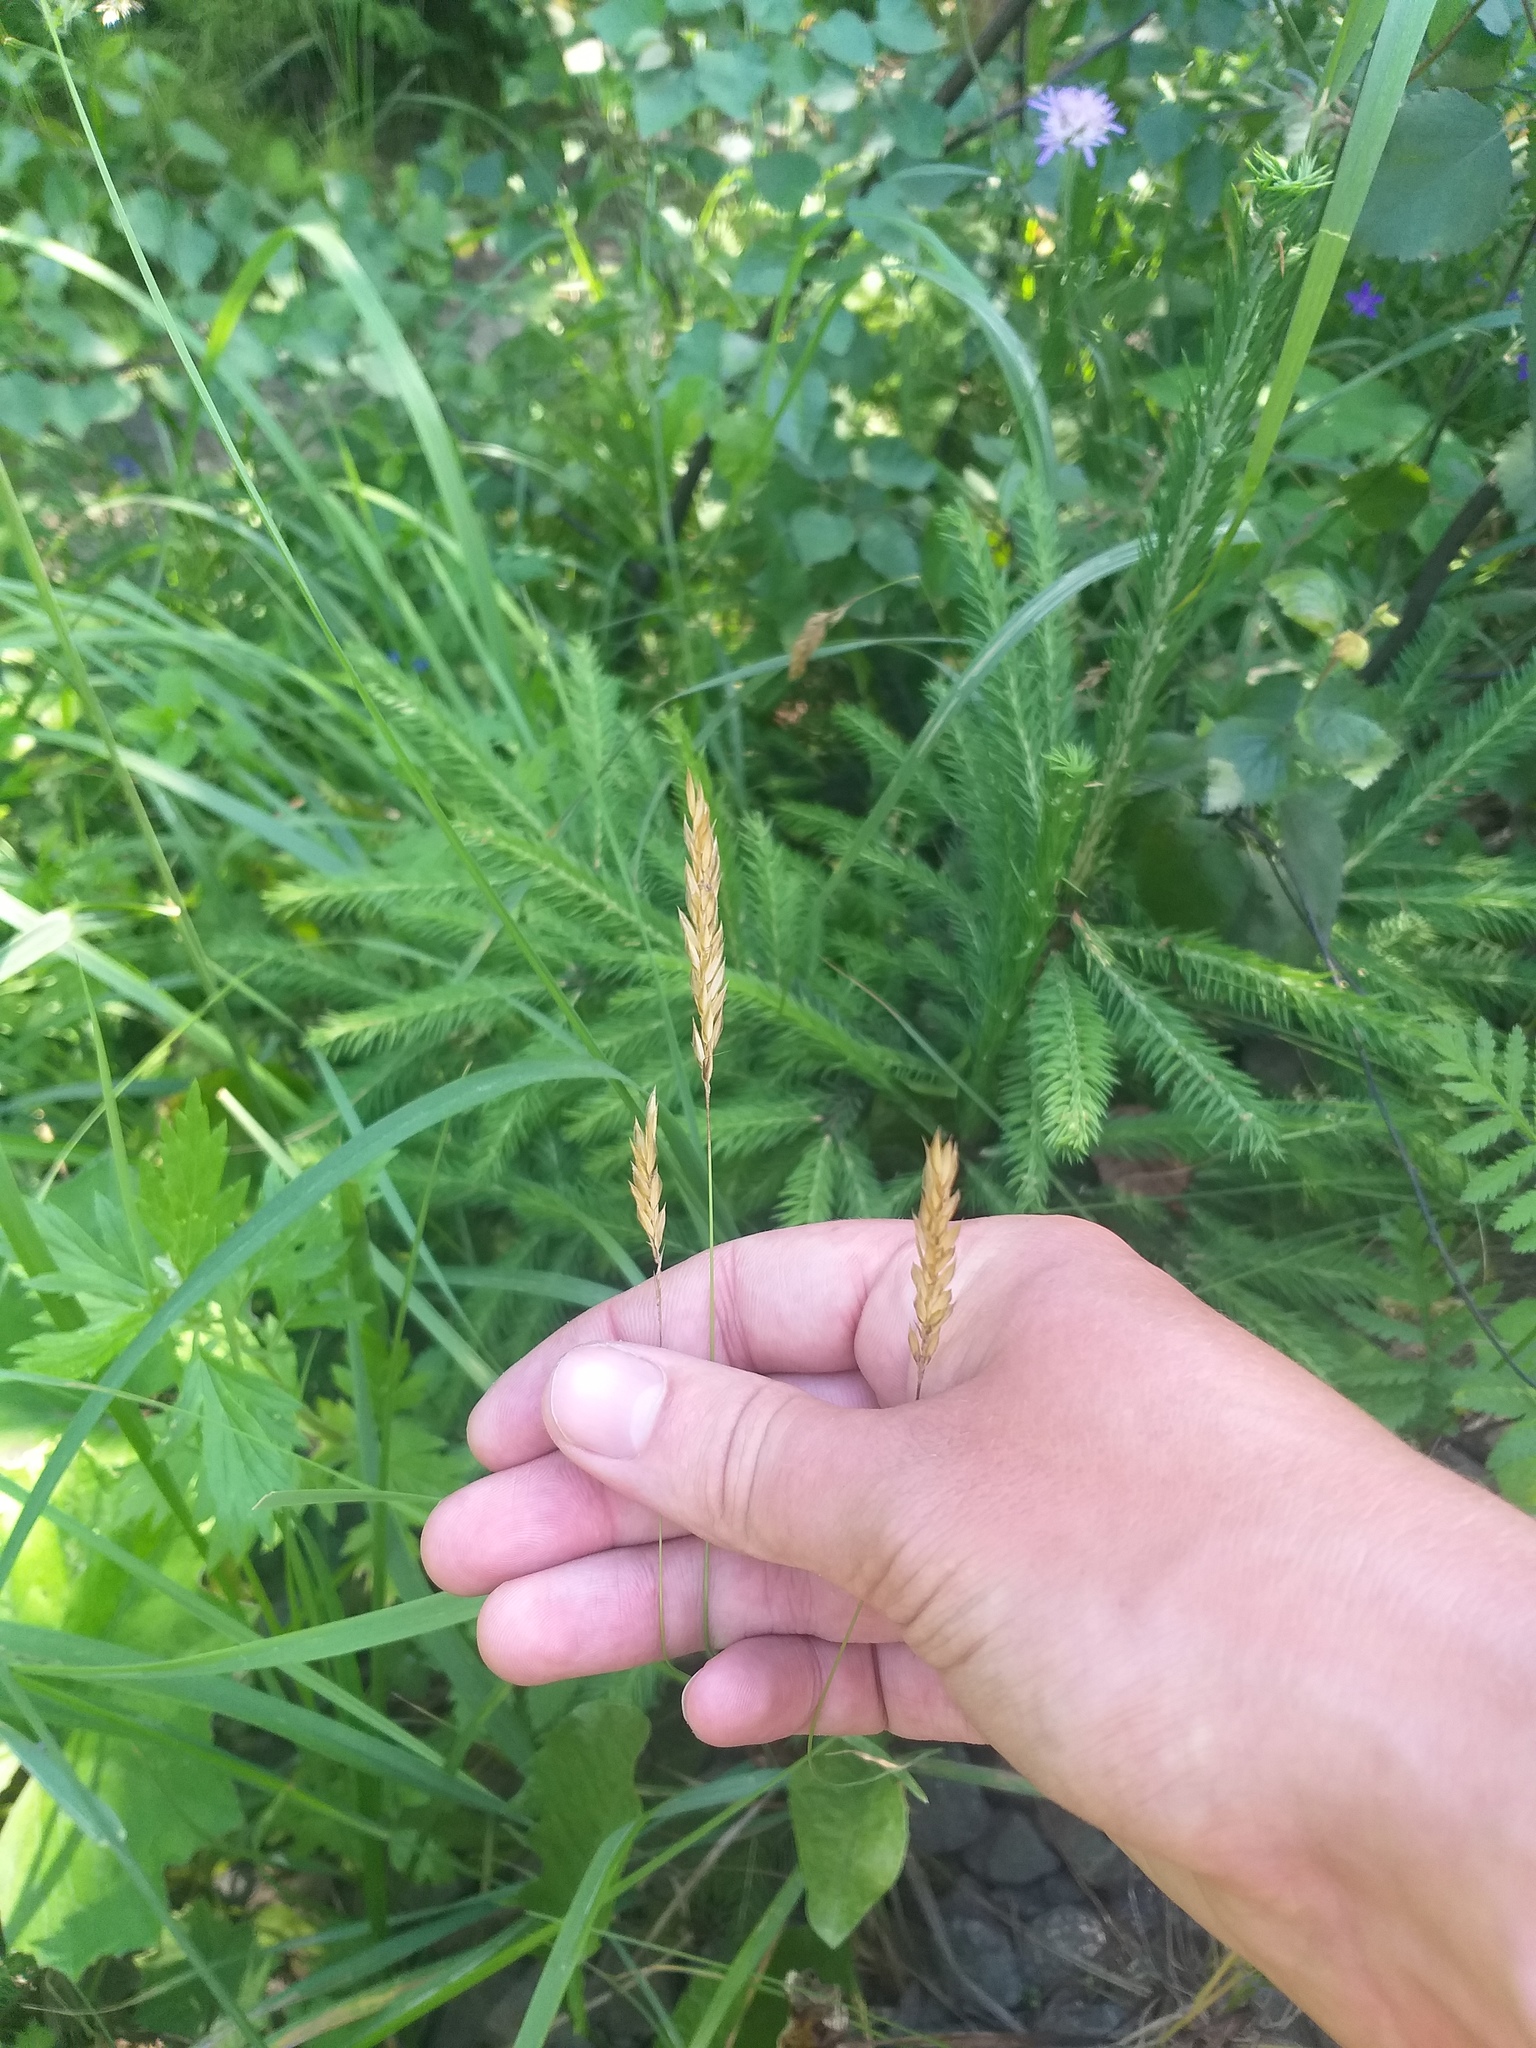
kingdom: Plantae
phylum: Tracheophyta
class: Liliopsida
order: Poales
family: Poaceae
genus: Anthoxanthum
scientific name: Anthoxanthum odoratum
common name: Sweet vernalgrass
